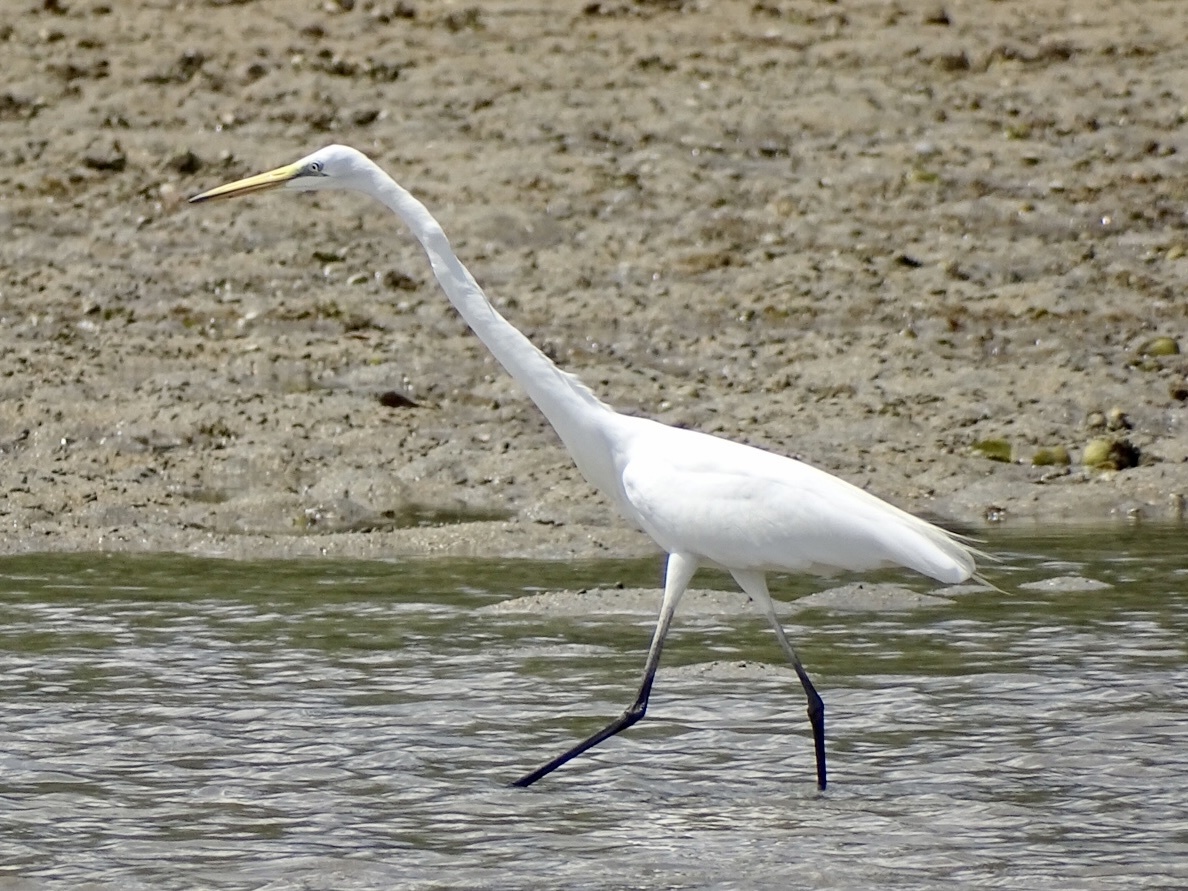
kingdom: Animalia
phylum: Chordata
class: Aves
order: Pelecaniformes
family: Ardeidae
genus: Ardea
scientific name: Ardea alba
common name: Great egret
